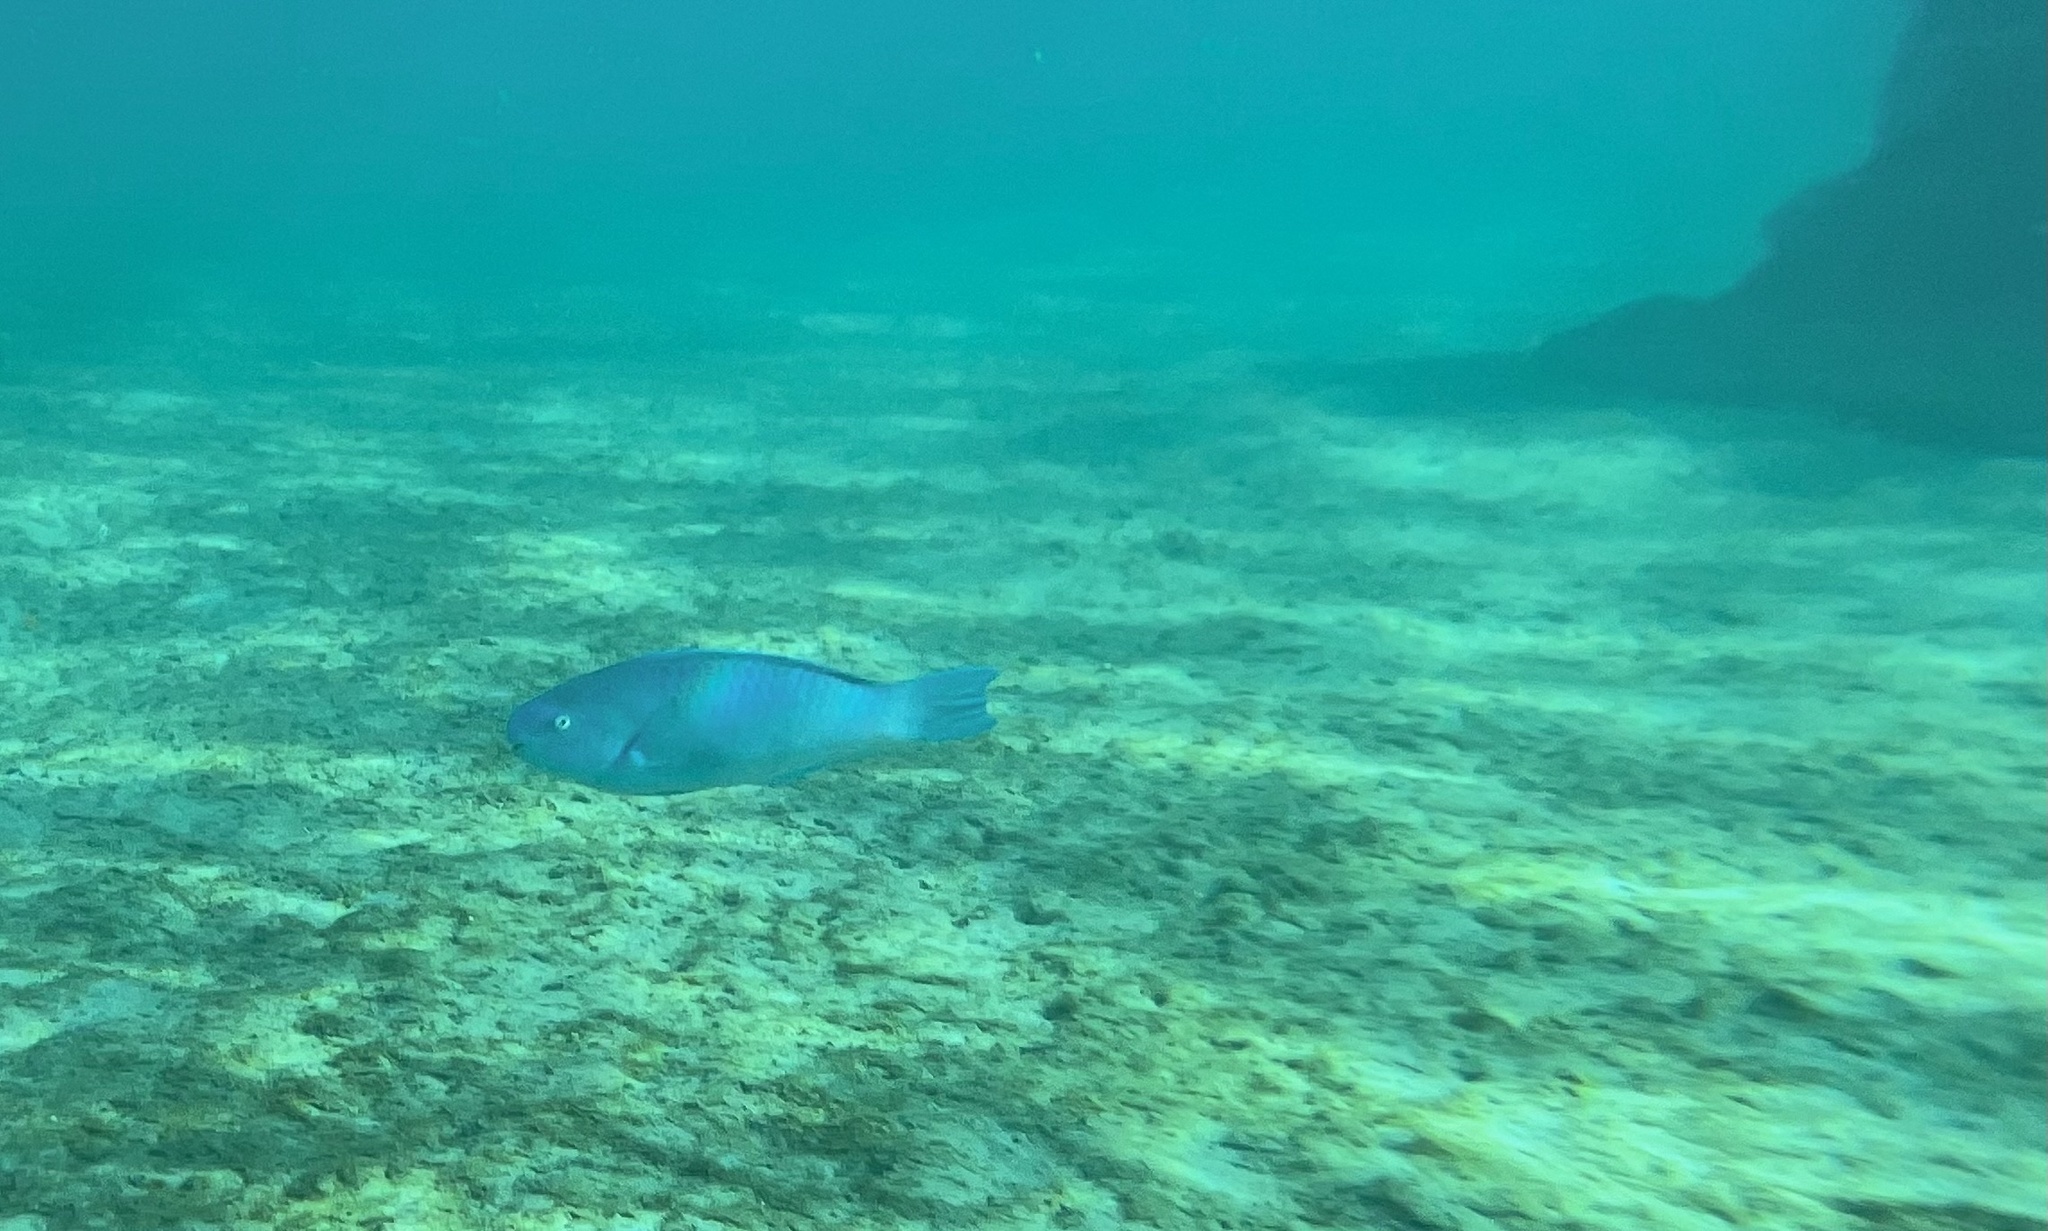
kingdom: Animalia
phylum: Chordata
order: Perciformes
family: Scaridae
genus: Scarus
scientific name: Scarus coeruleus
